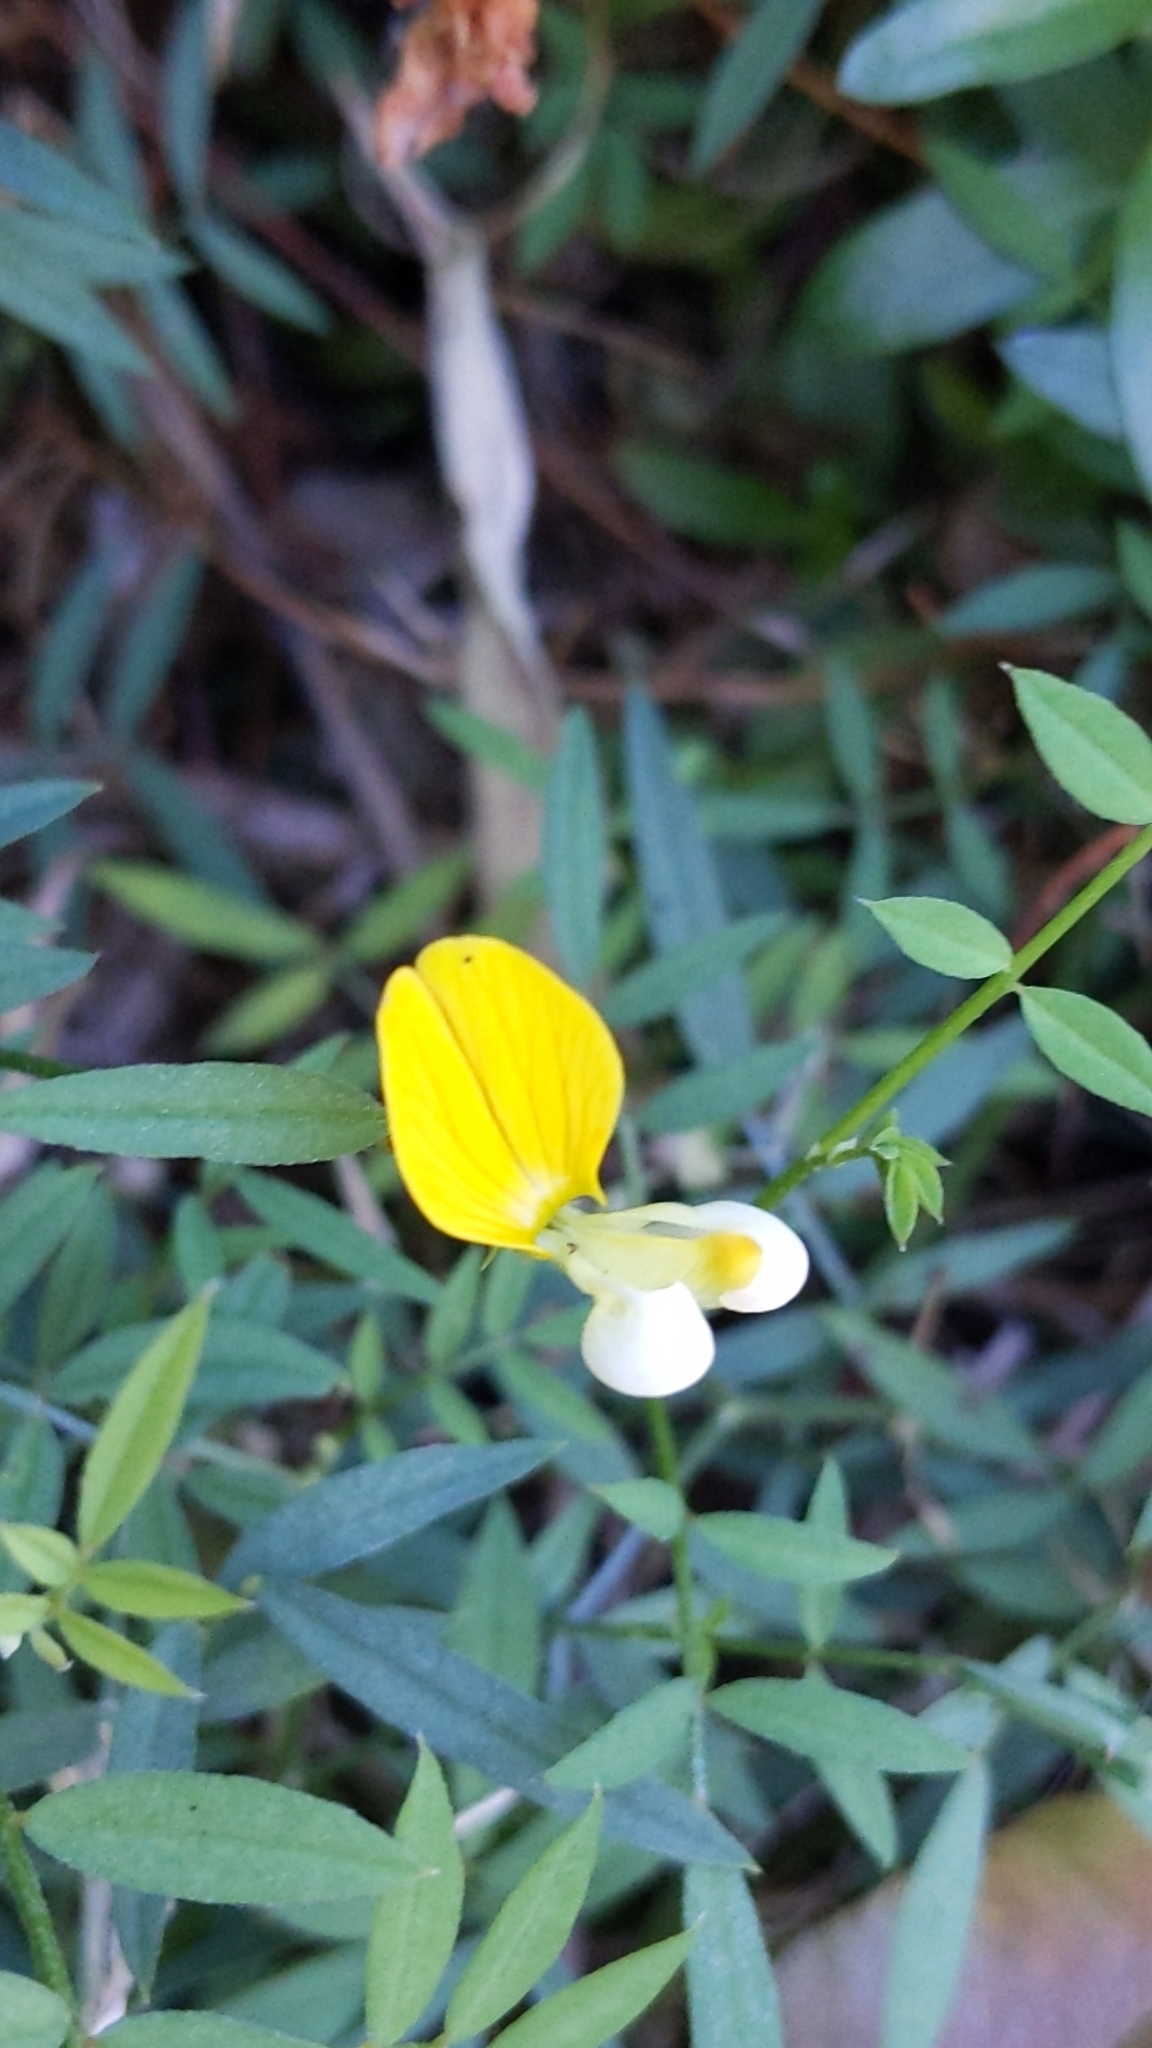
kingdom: Plantae
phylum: Tracheophyta
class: Magnoliopsida
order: Fabales
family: Fabaceae
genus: Hosackia
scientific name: Hosackia oblongifolia
